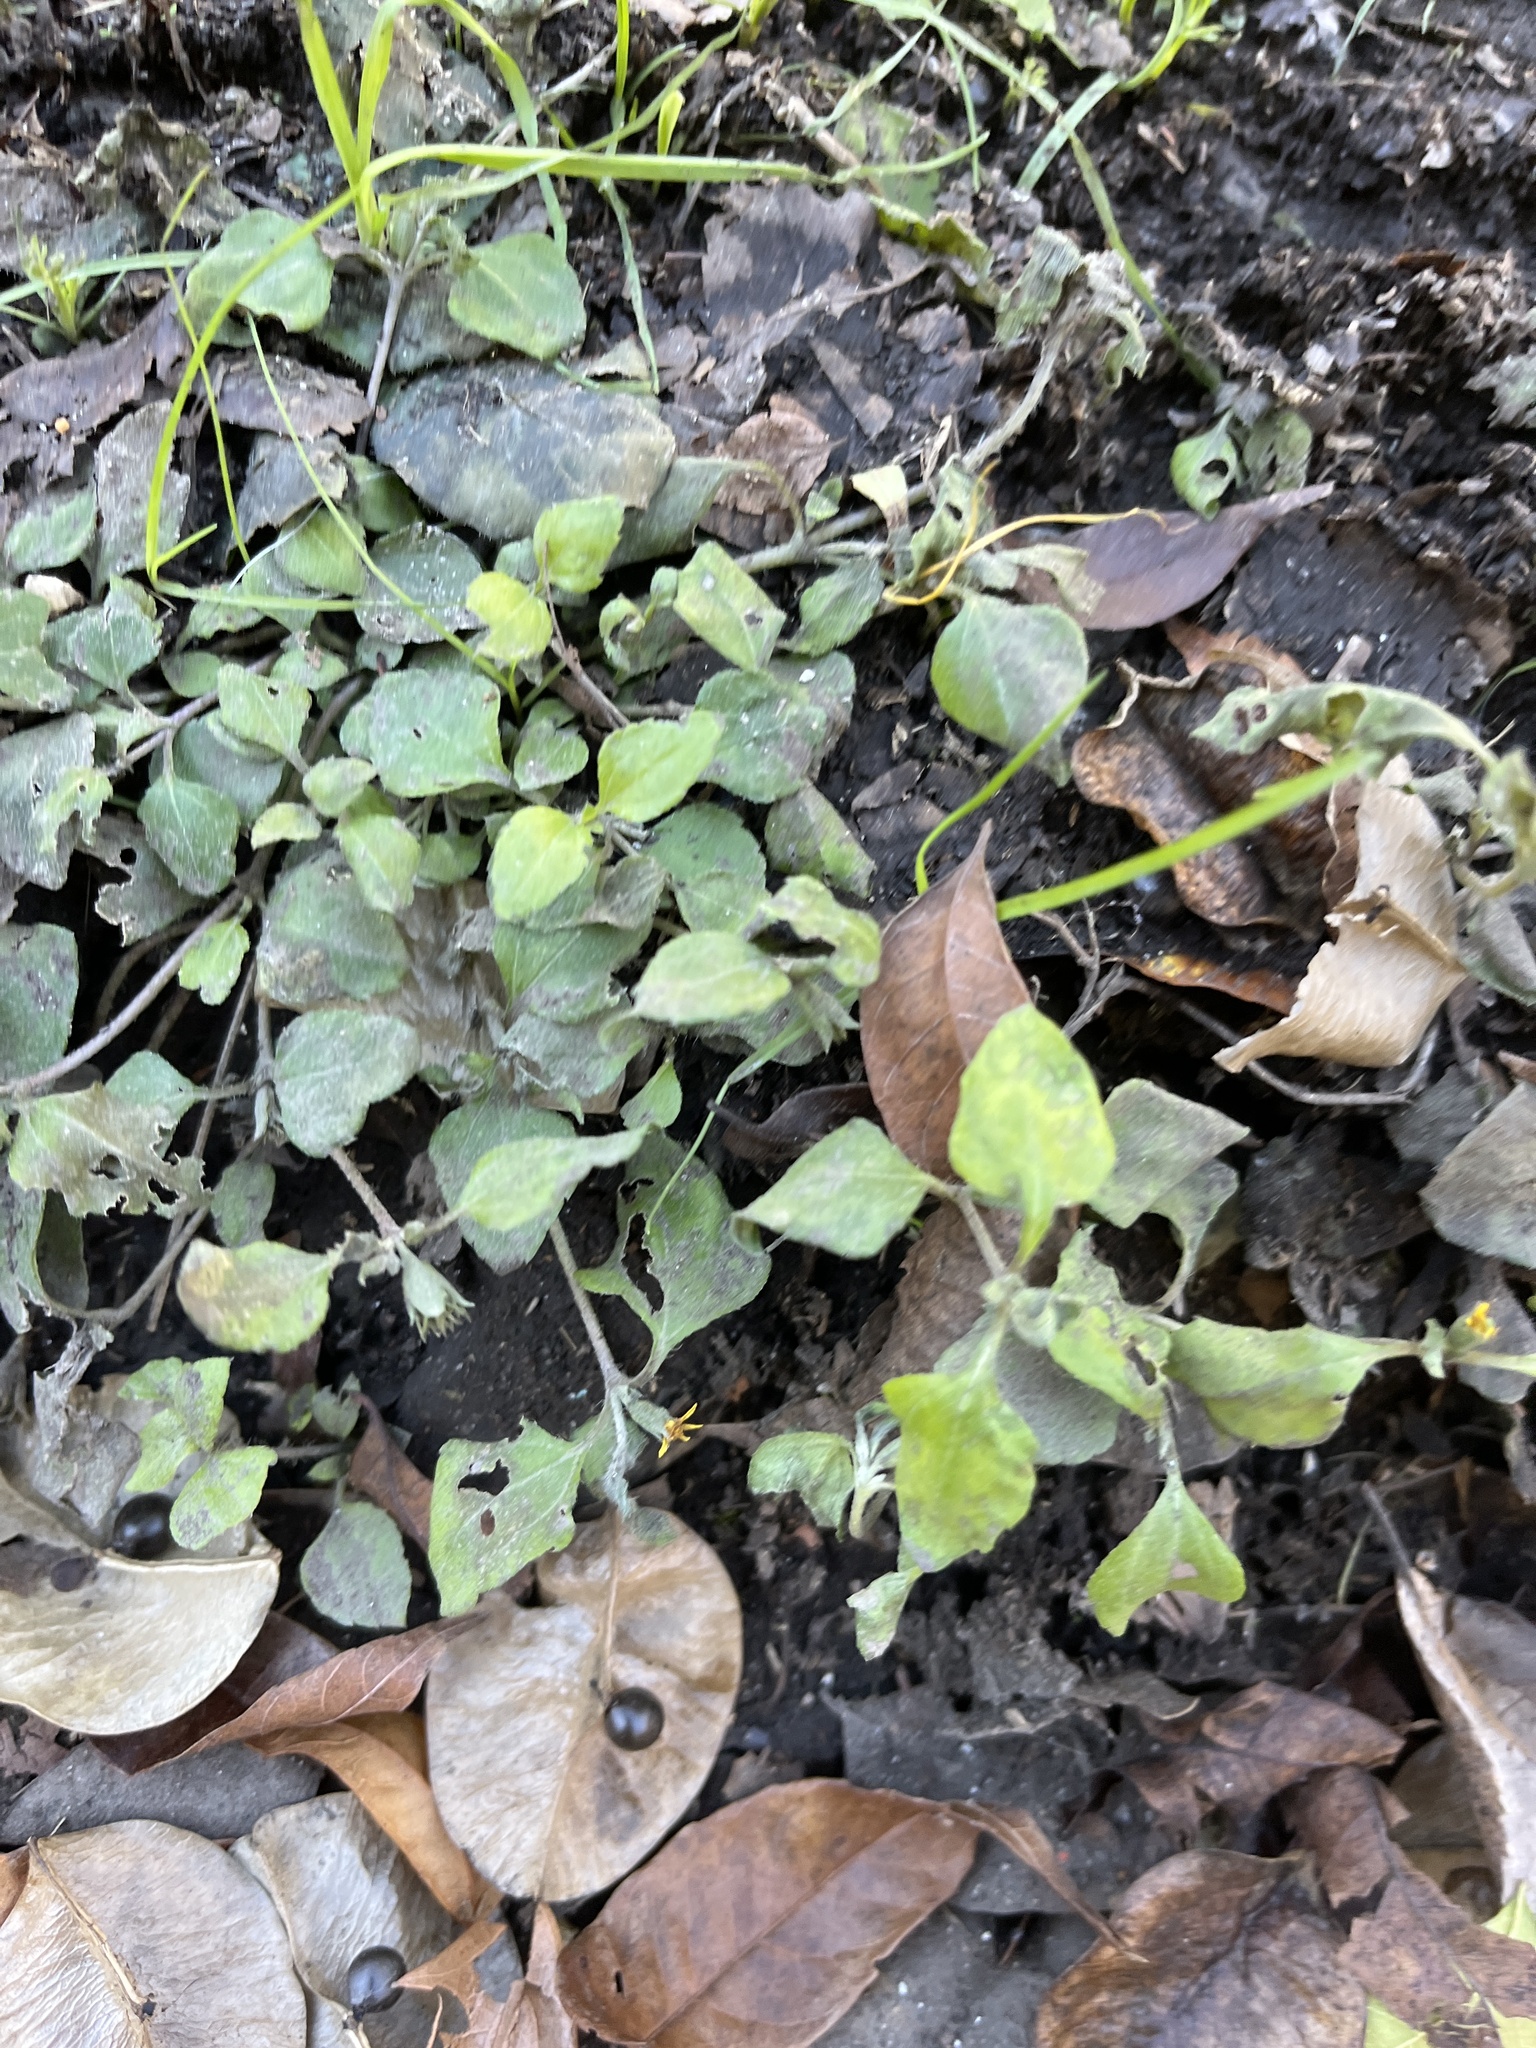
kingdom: Plantae
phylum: Tracheophyta
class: Magnoliopsida
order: Asterales
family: Asteraceae
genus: Calyptocarpus
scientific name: Calyptocarpus vialis
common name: Straggler daisy
